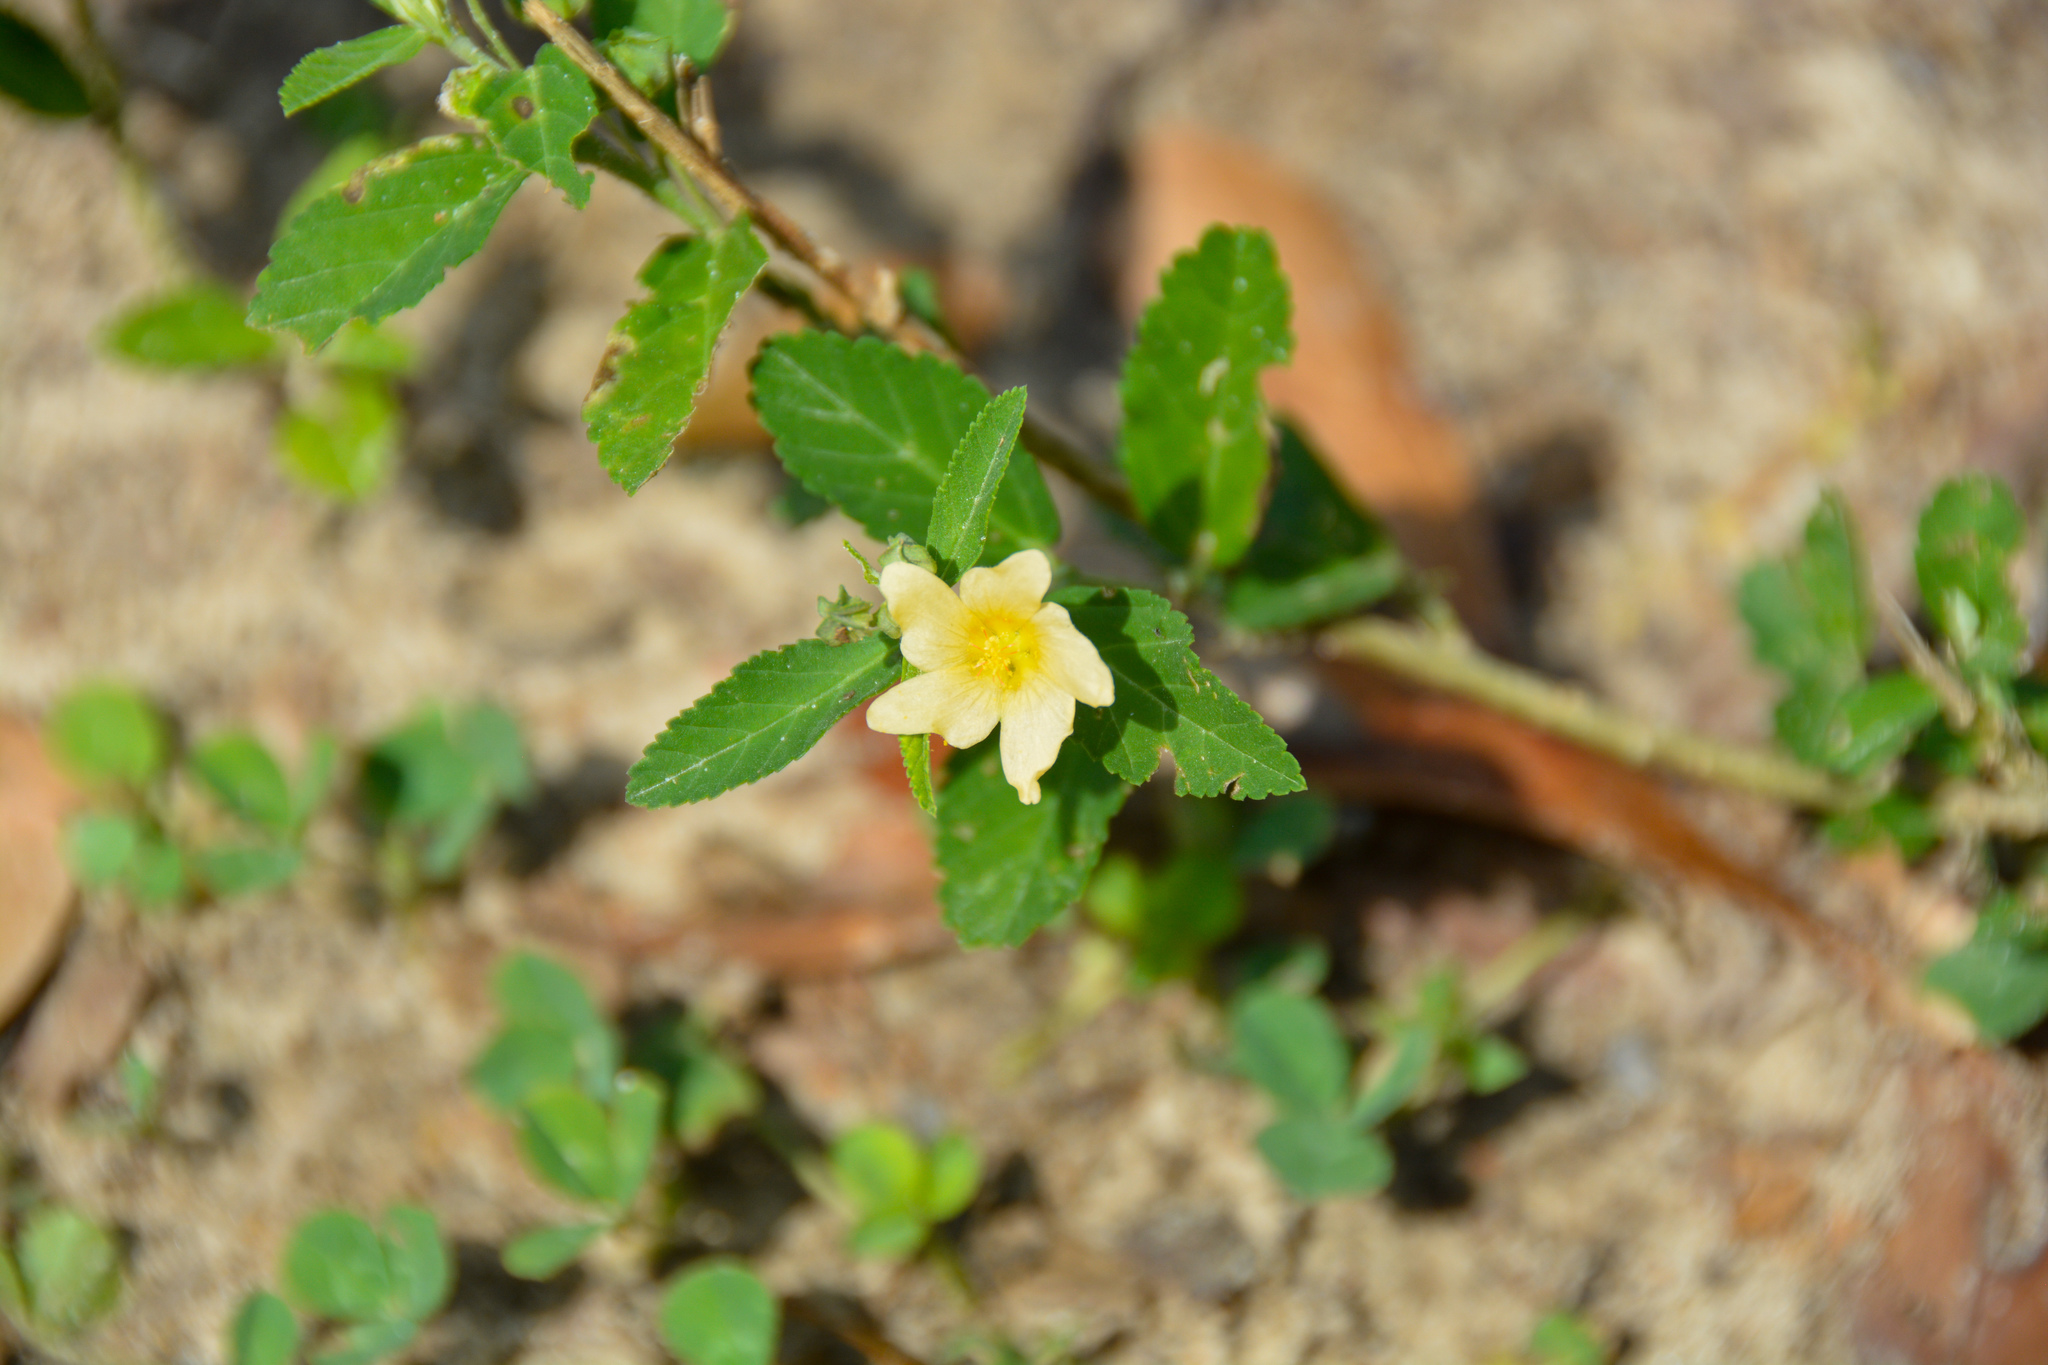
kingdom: Plantae
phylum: Tracheophyta
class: Magnoliopsida
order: Malvales
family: Malvaceae
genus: Sida
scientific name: Sida rhombifolia
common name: Queensland-hemp
